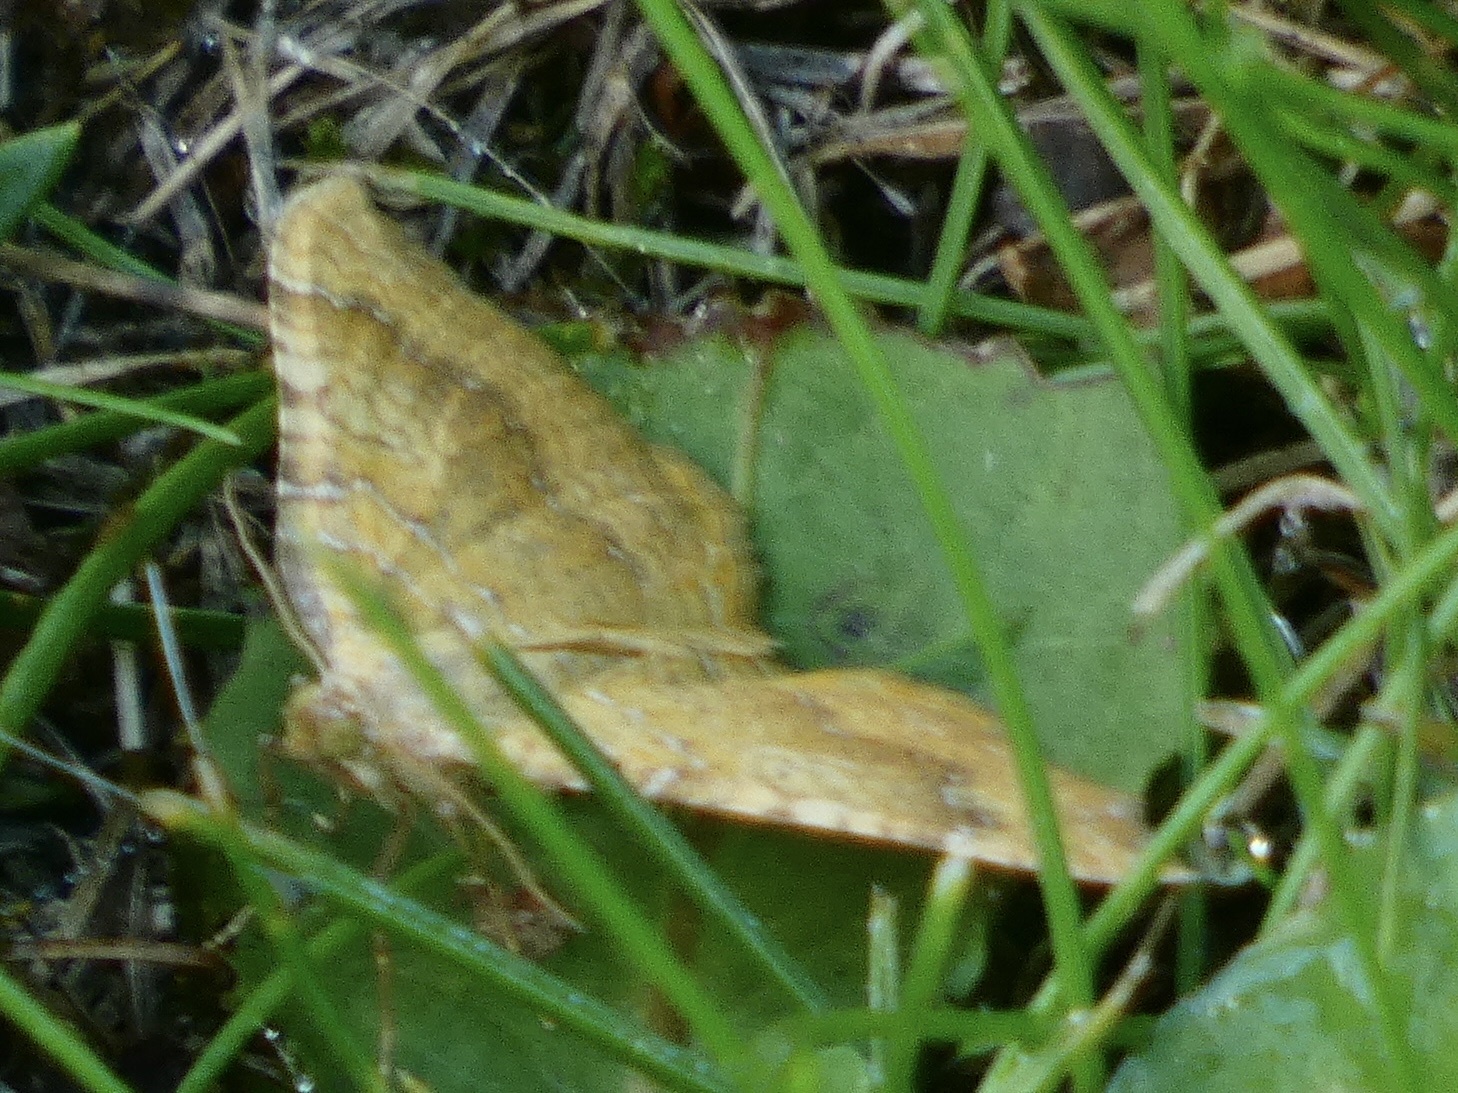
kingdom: Animalia
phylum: Arthropoda
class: Insecta
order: Lepidoptera
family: Geometridae
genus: Camptogramma
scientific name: Camptogramma bilineata
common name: Yellow shell
